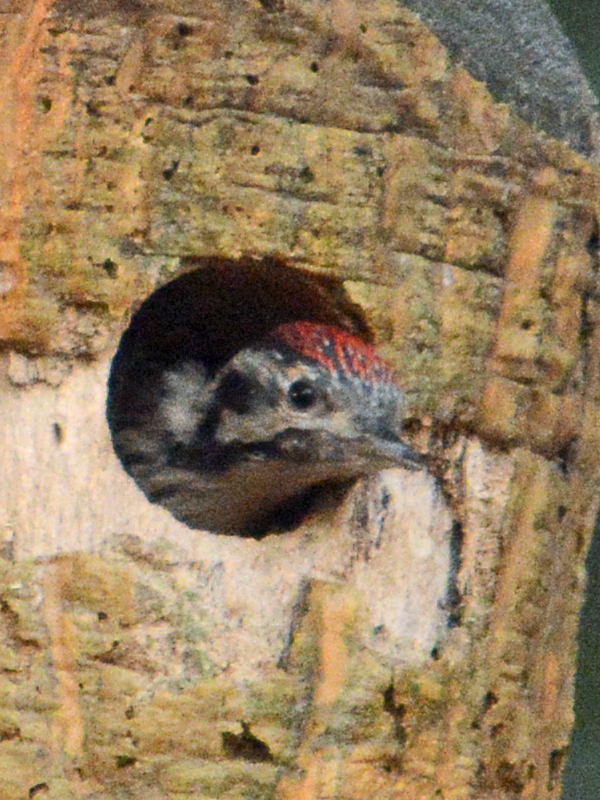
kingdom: Animalia
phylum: Chordata
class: Aves
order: Piciformes
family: Picidae
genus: Dryobates
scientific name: Dryobates scalaris
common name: Ladder-backed woodpecker
